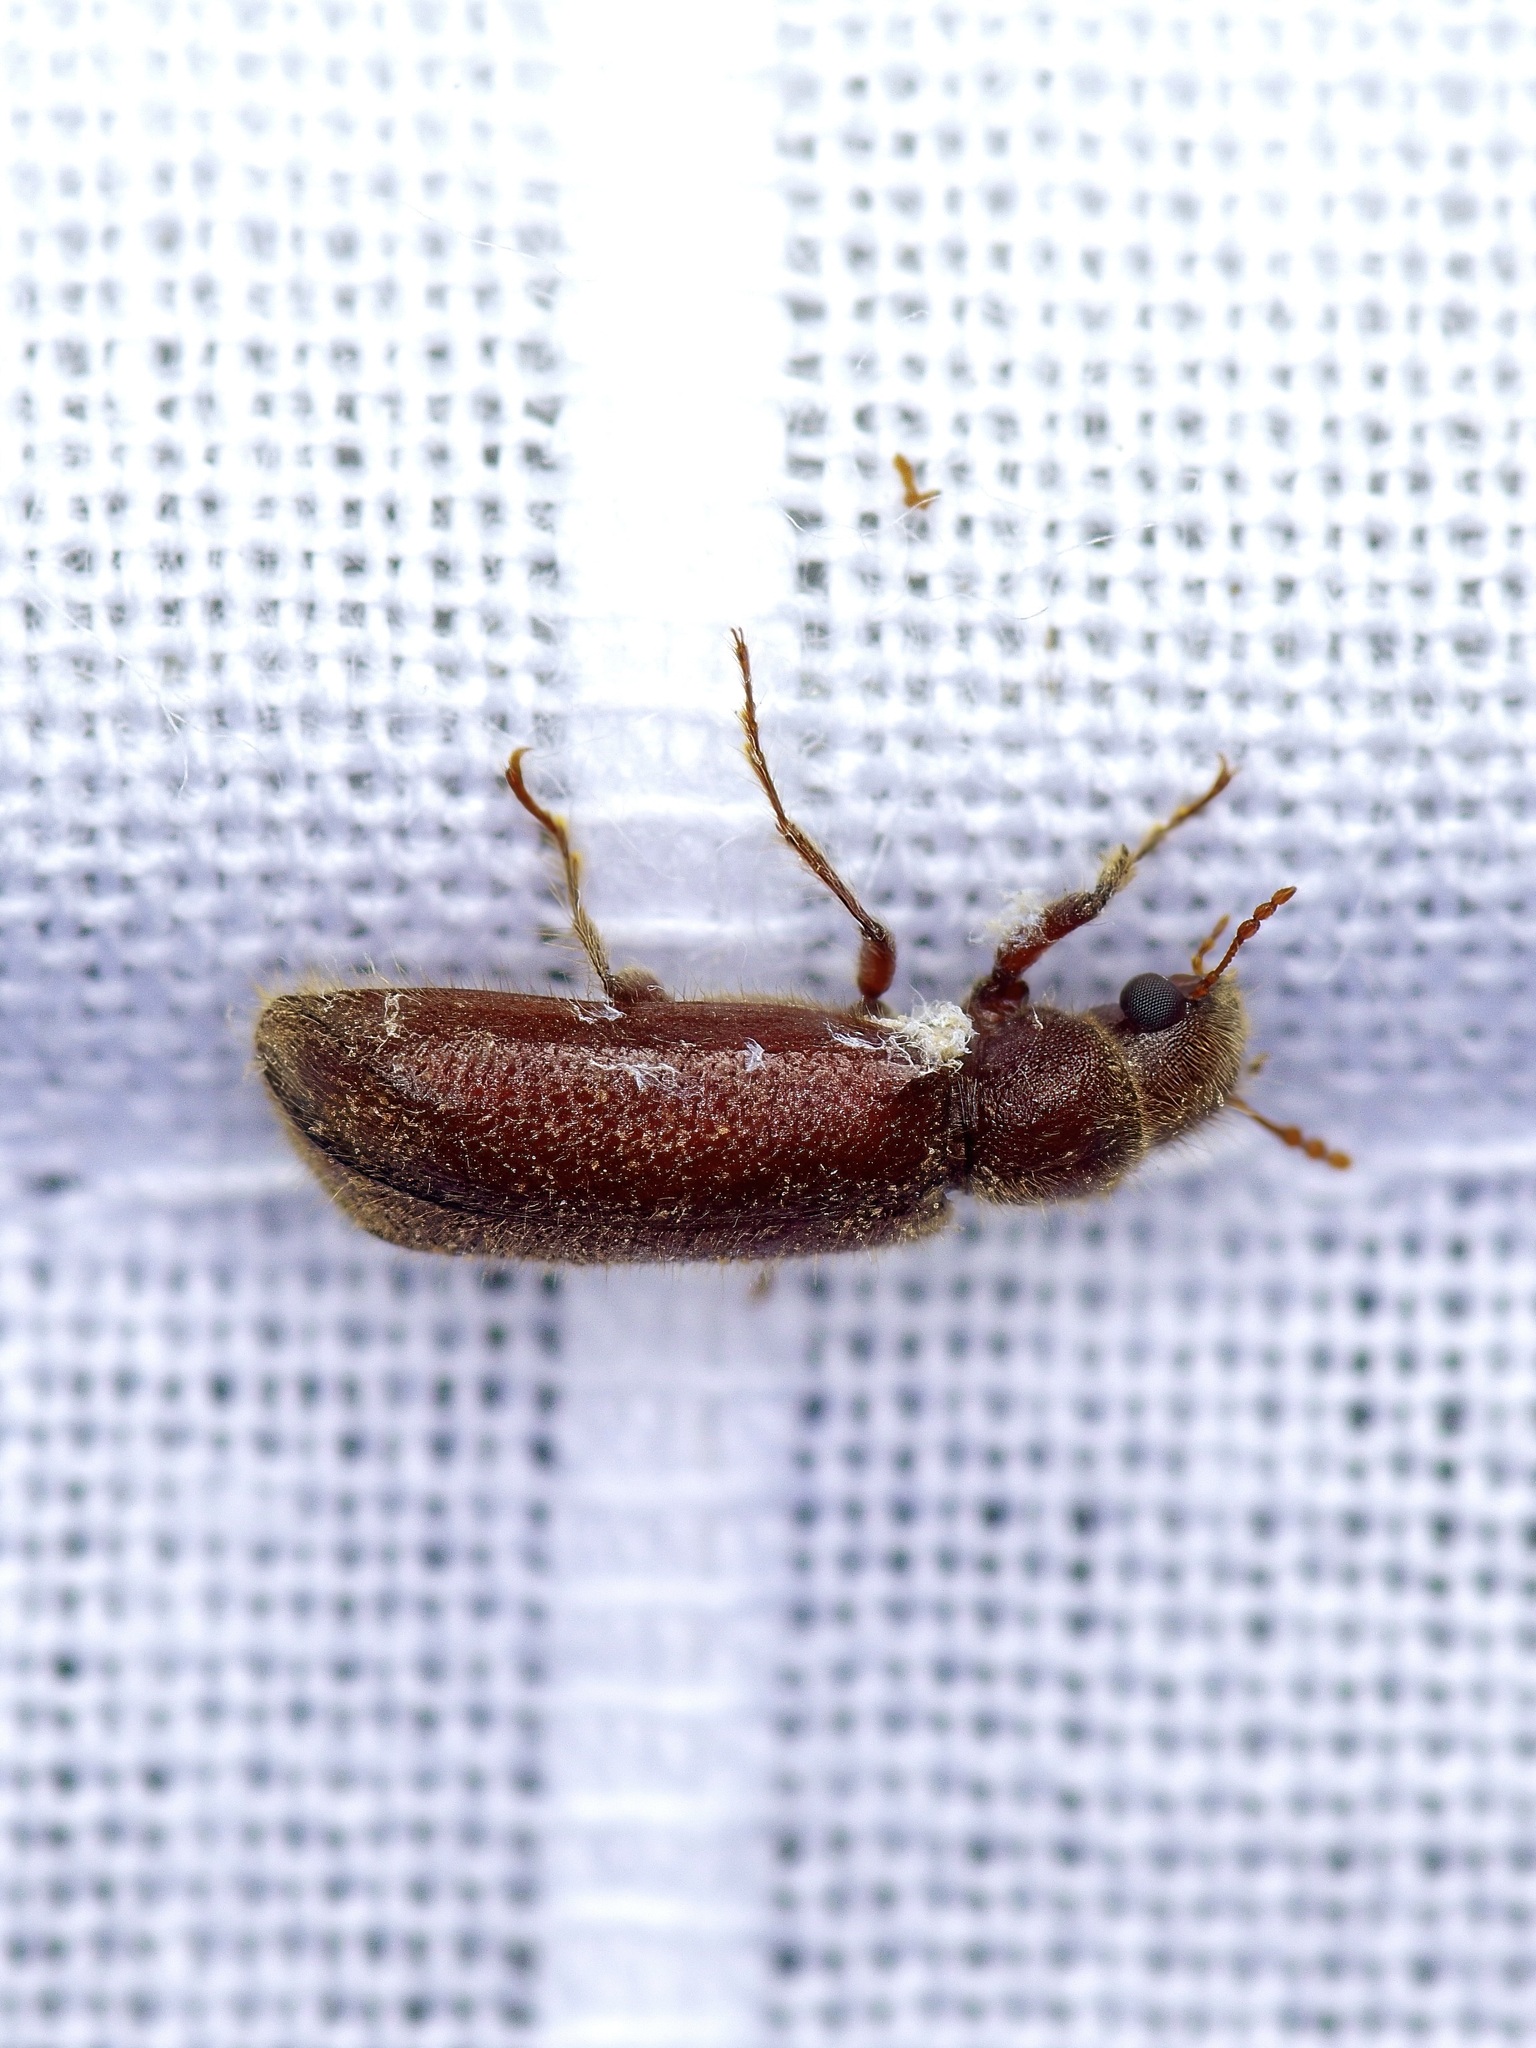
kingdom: Animalia
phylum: Arthropoda
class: Insecta
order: Coleoptera
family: Bostrichidae
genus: Melalgus
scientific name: Melalgus plicatus
